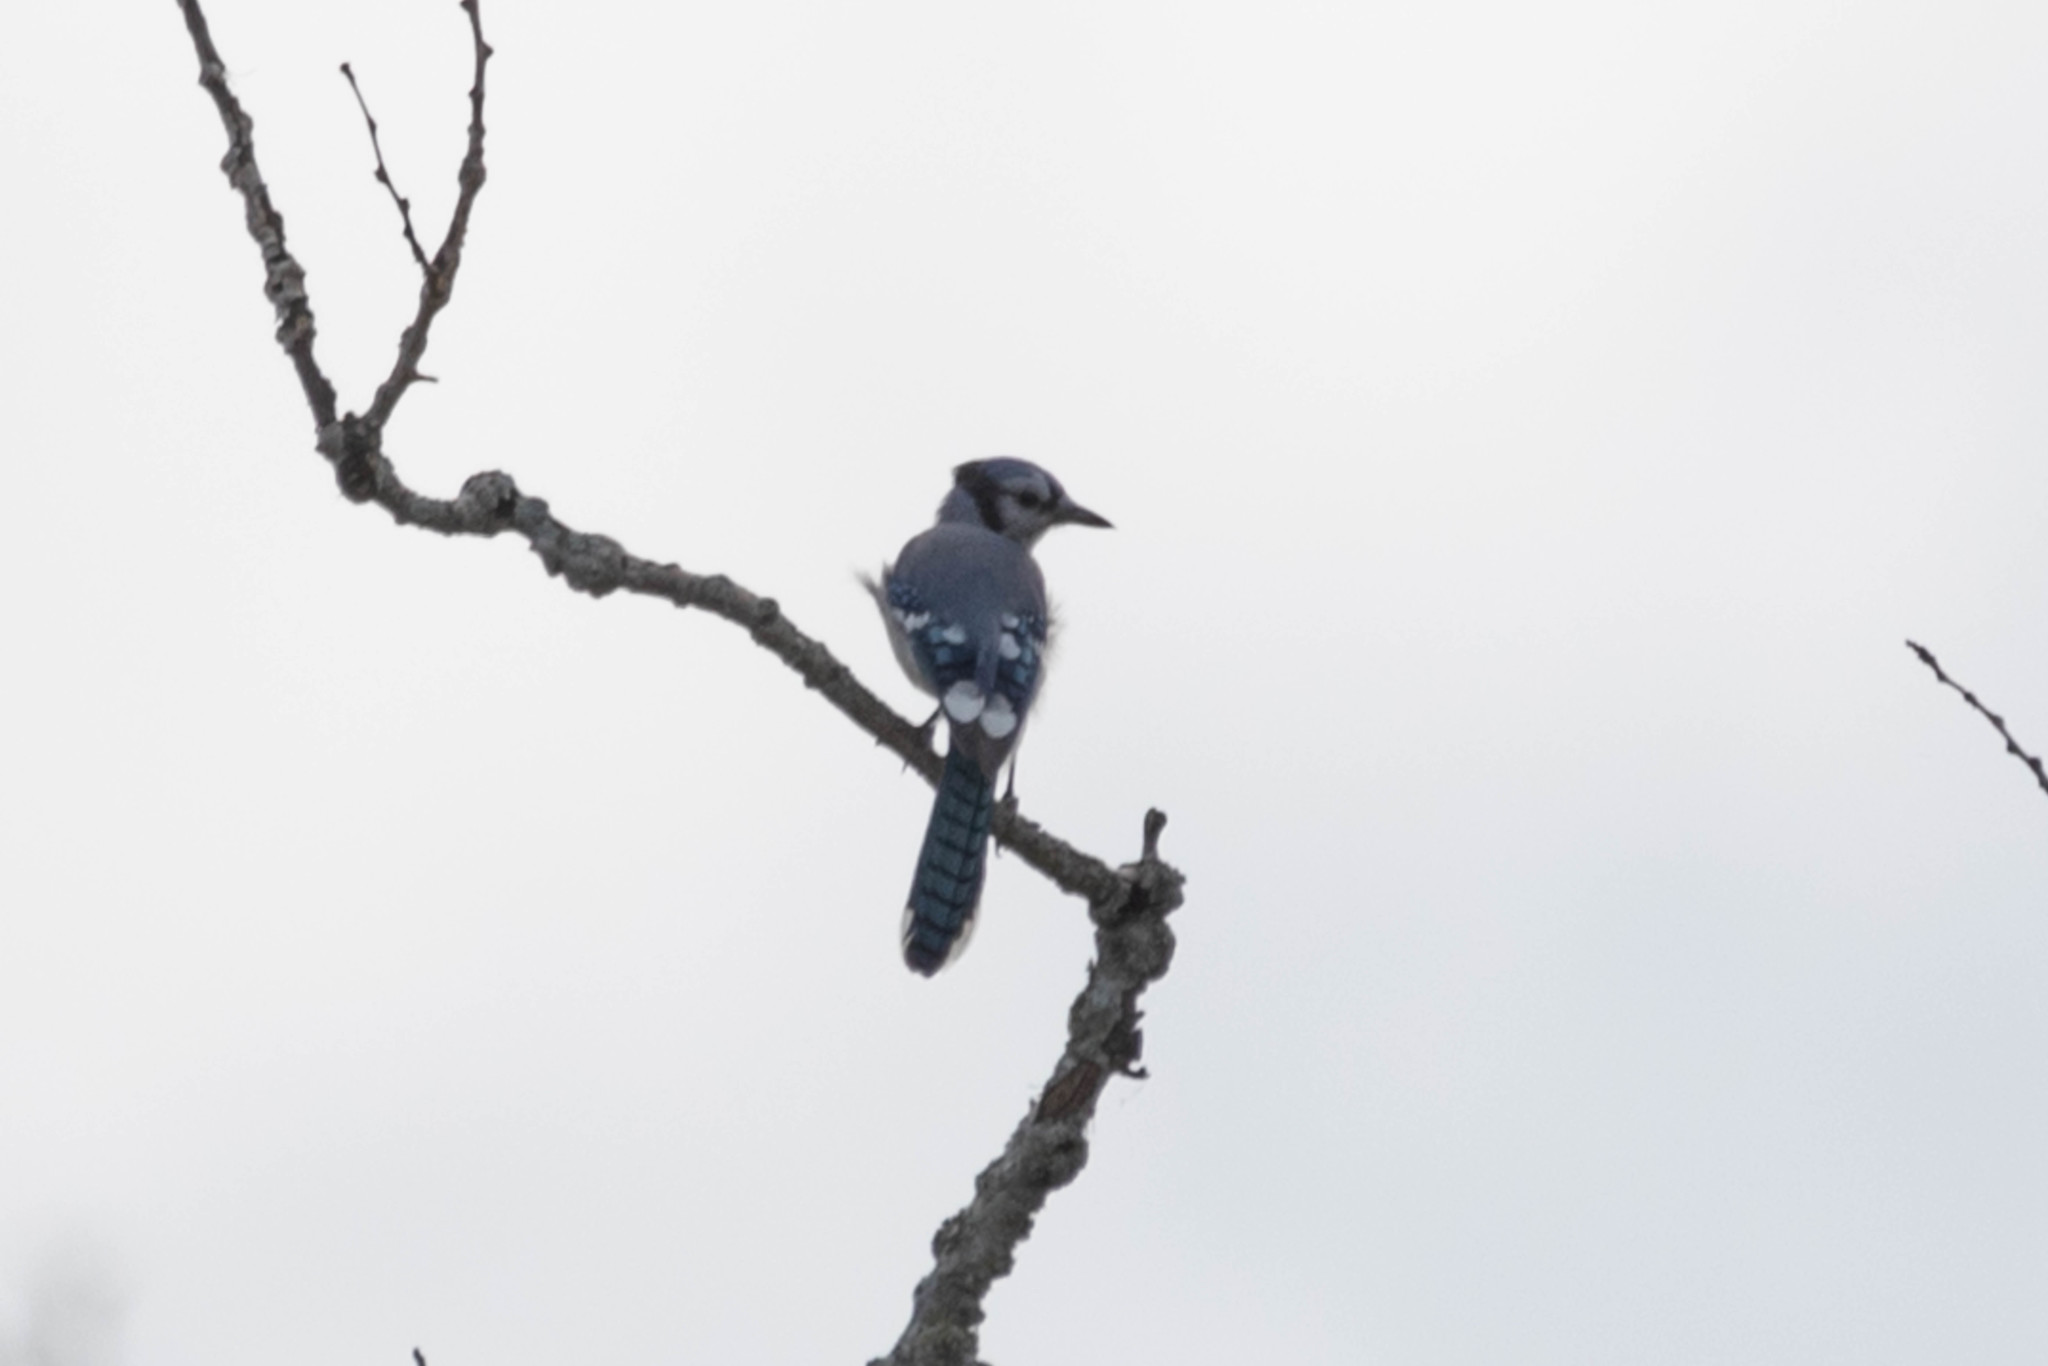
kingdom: Animalia
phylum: Chordata
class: Aves
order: Passeriformes
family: Corvidae
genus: Cyanocitta
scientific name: Cyanocitta cristata
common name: Blue jay
